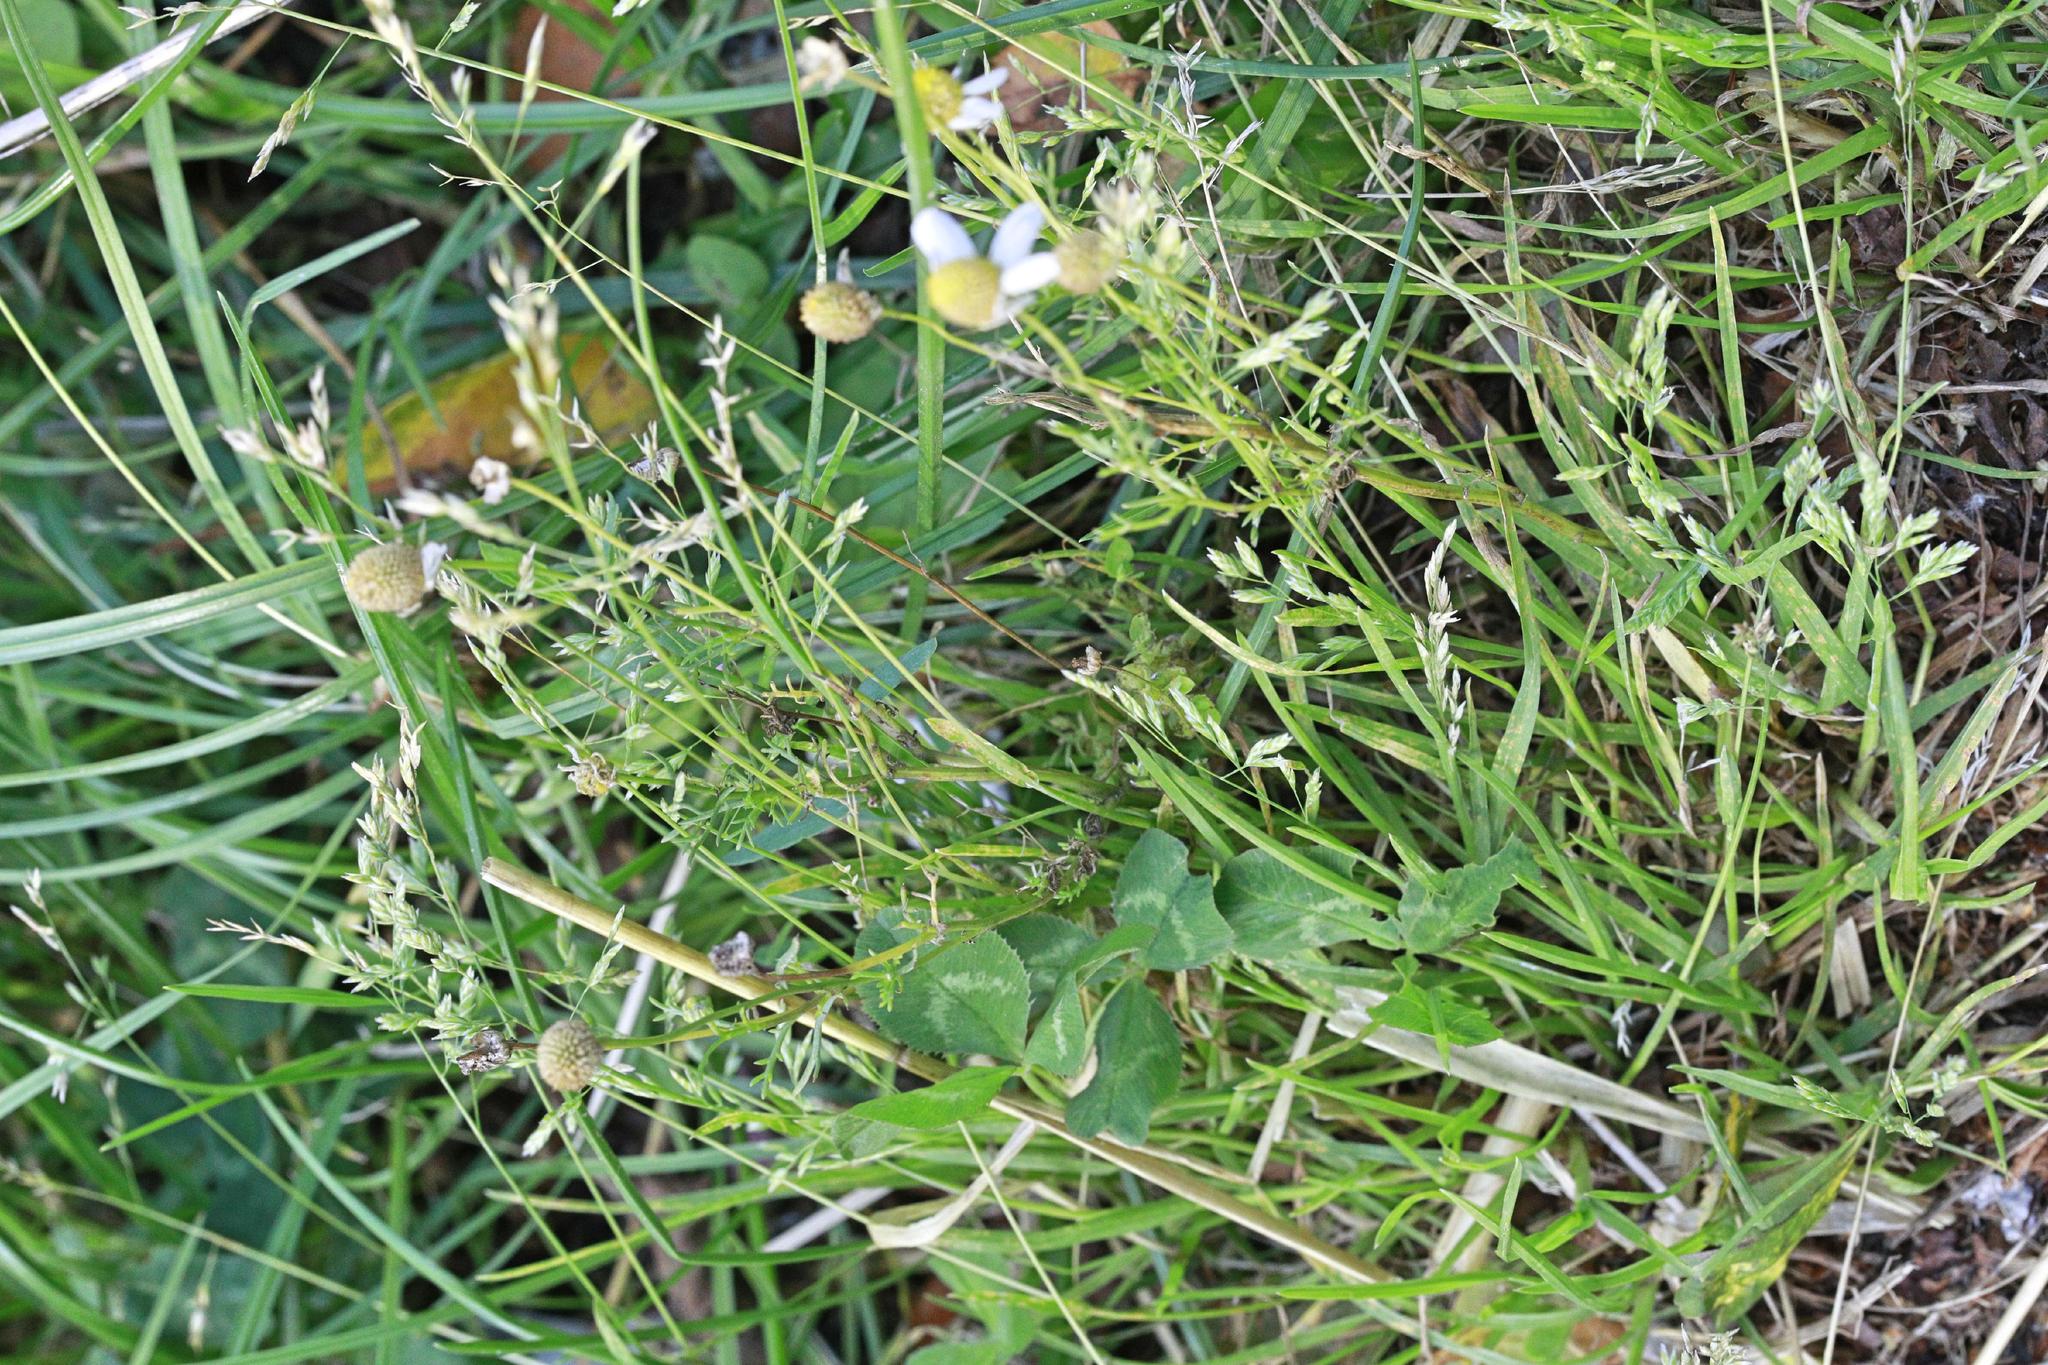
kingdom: Plantae
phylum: Tracheophyta
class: Liliopsida
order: Poales
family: Poaceae
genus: Poa
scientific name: Poa annua
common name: Annual bluegrass
